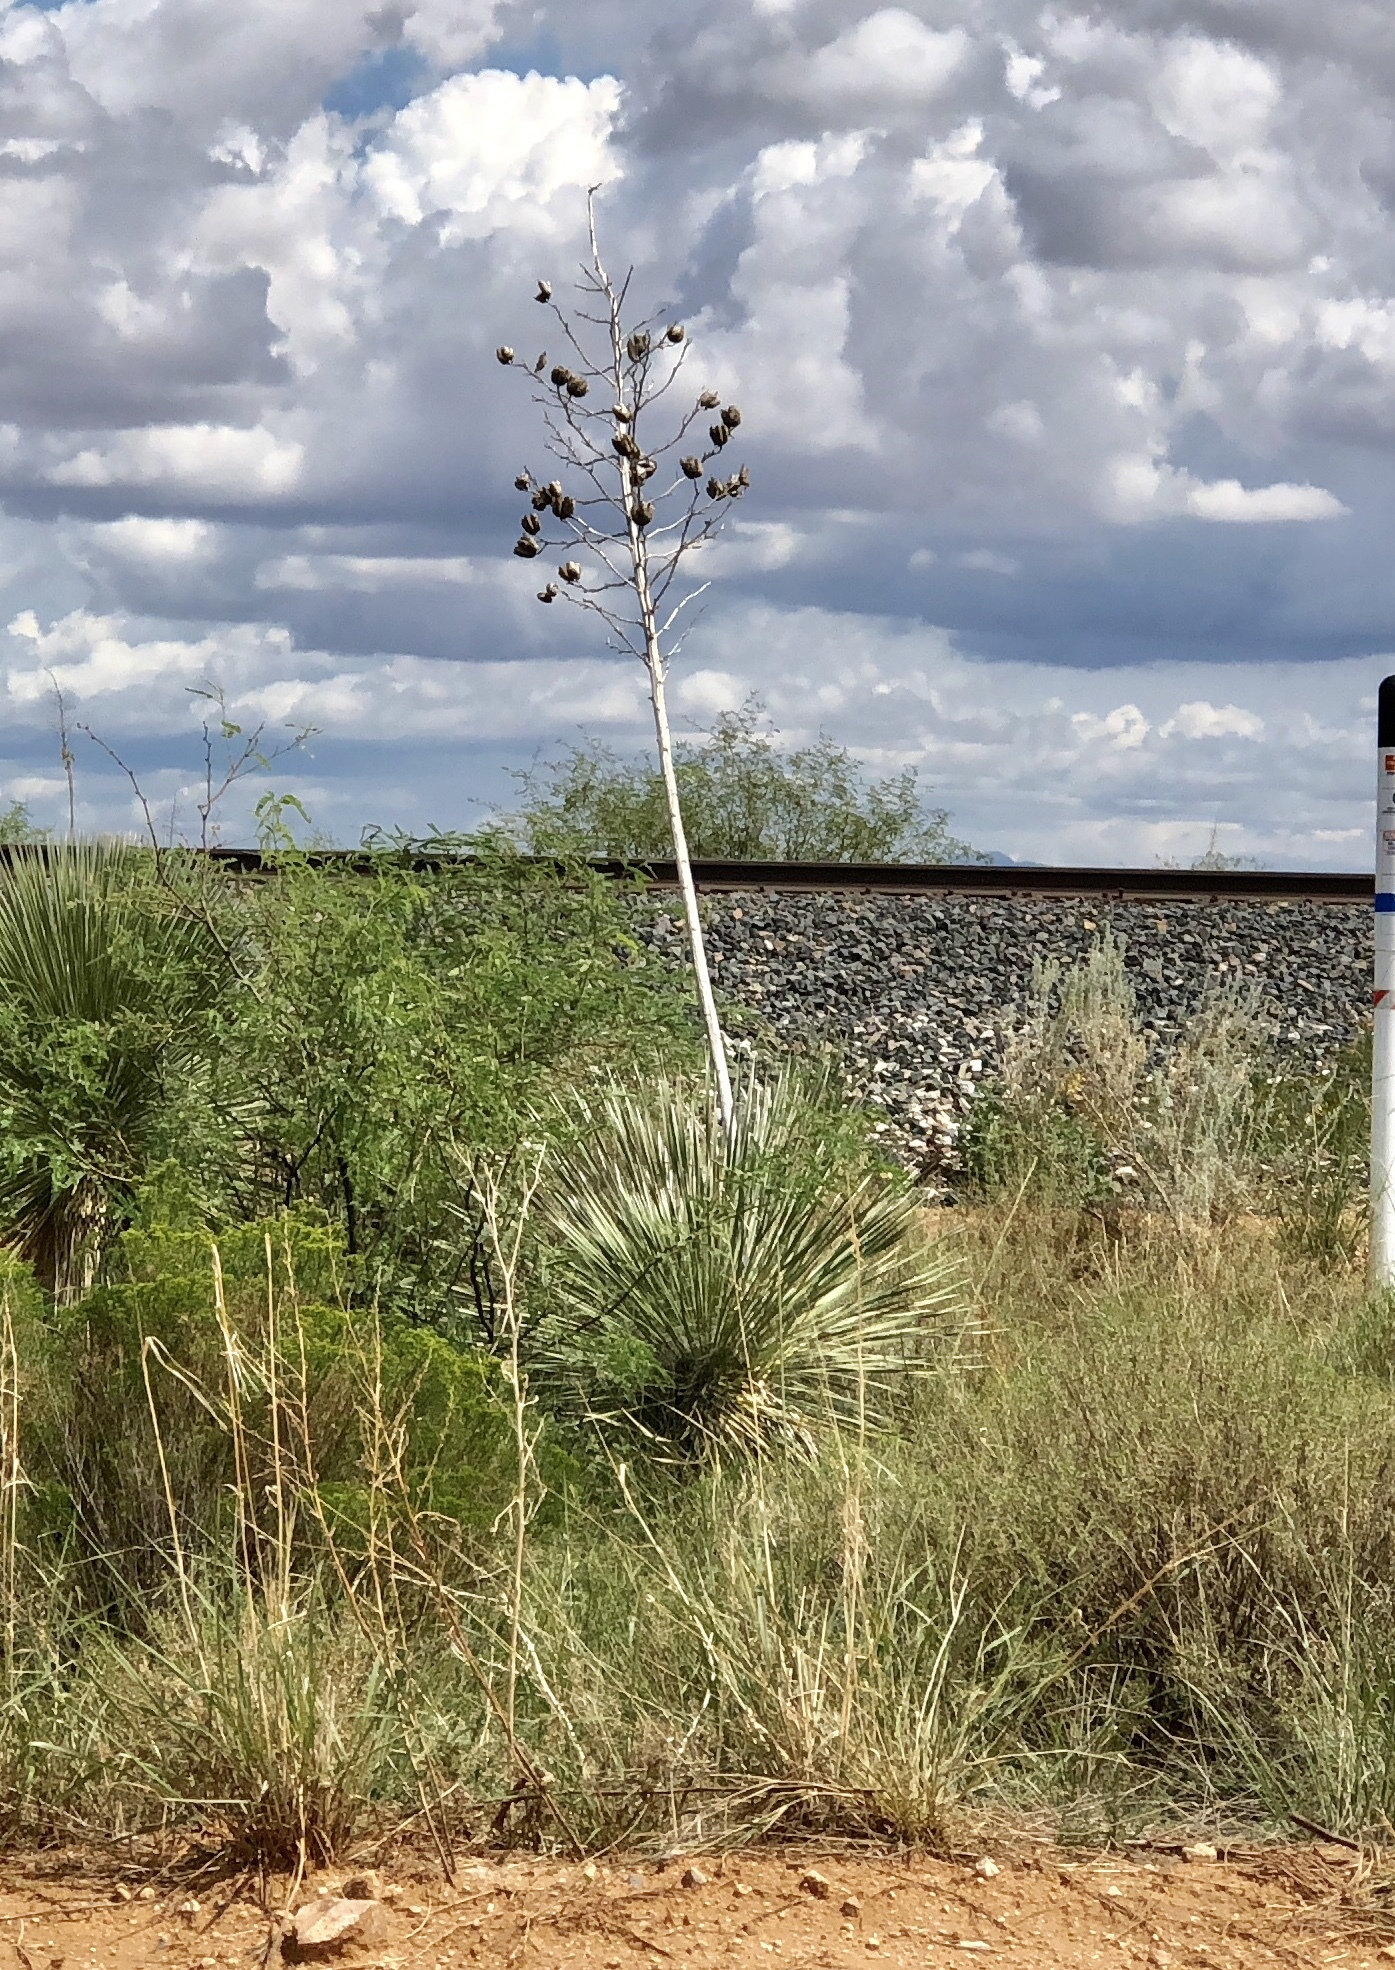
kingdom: Plantae
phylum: Tracheophyta
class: Liliopsida
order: Asparagales
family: Asparagaceae
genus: Yucca
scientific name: Yucca elata
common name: Palmella
